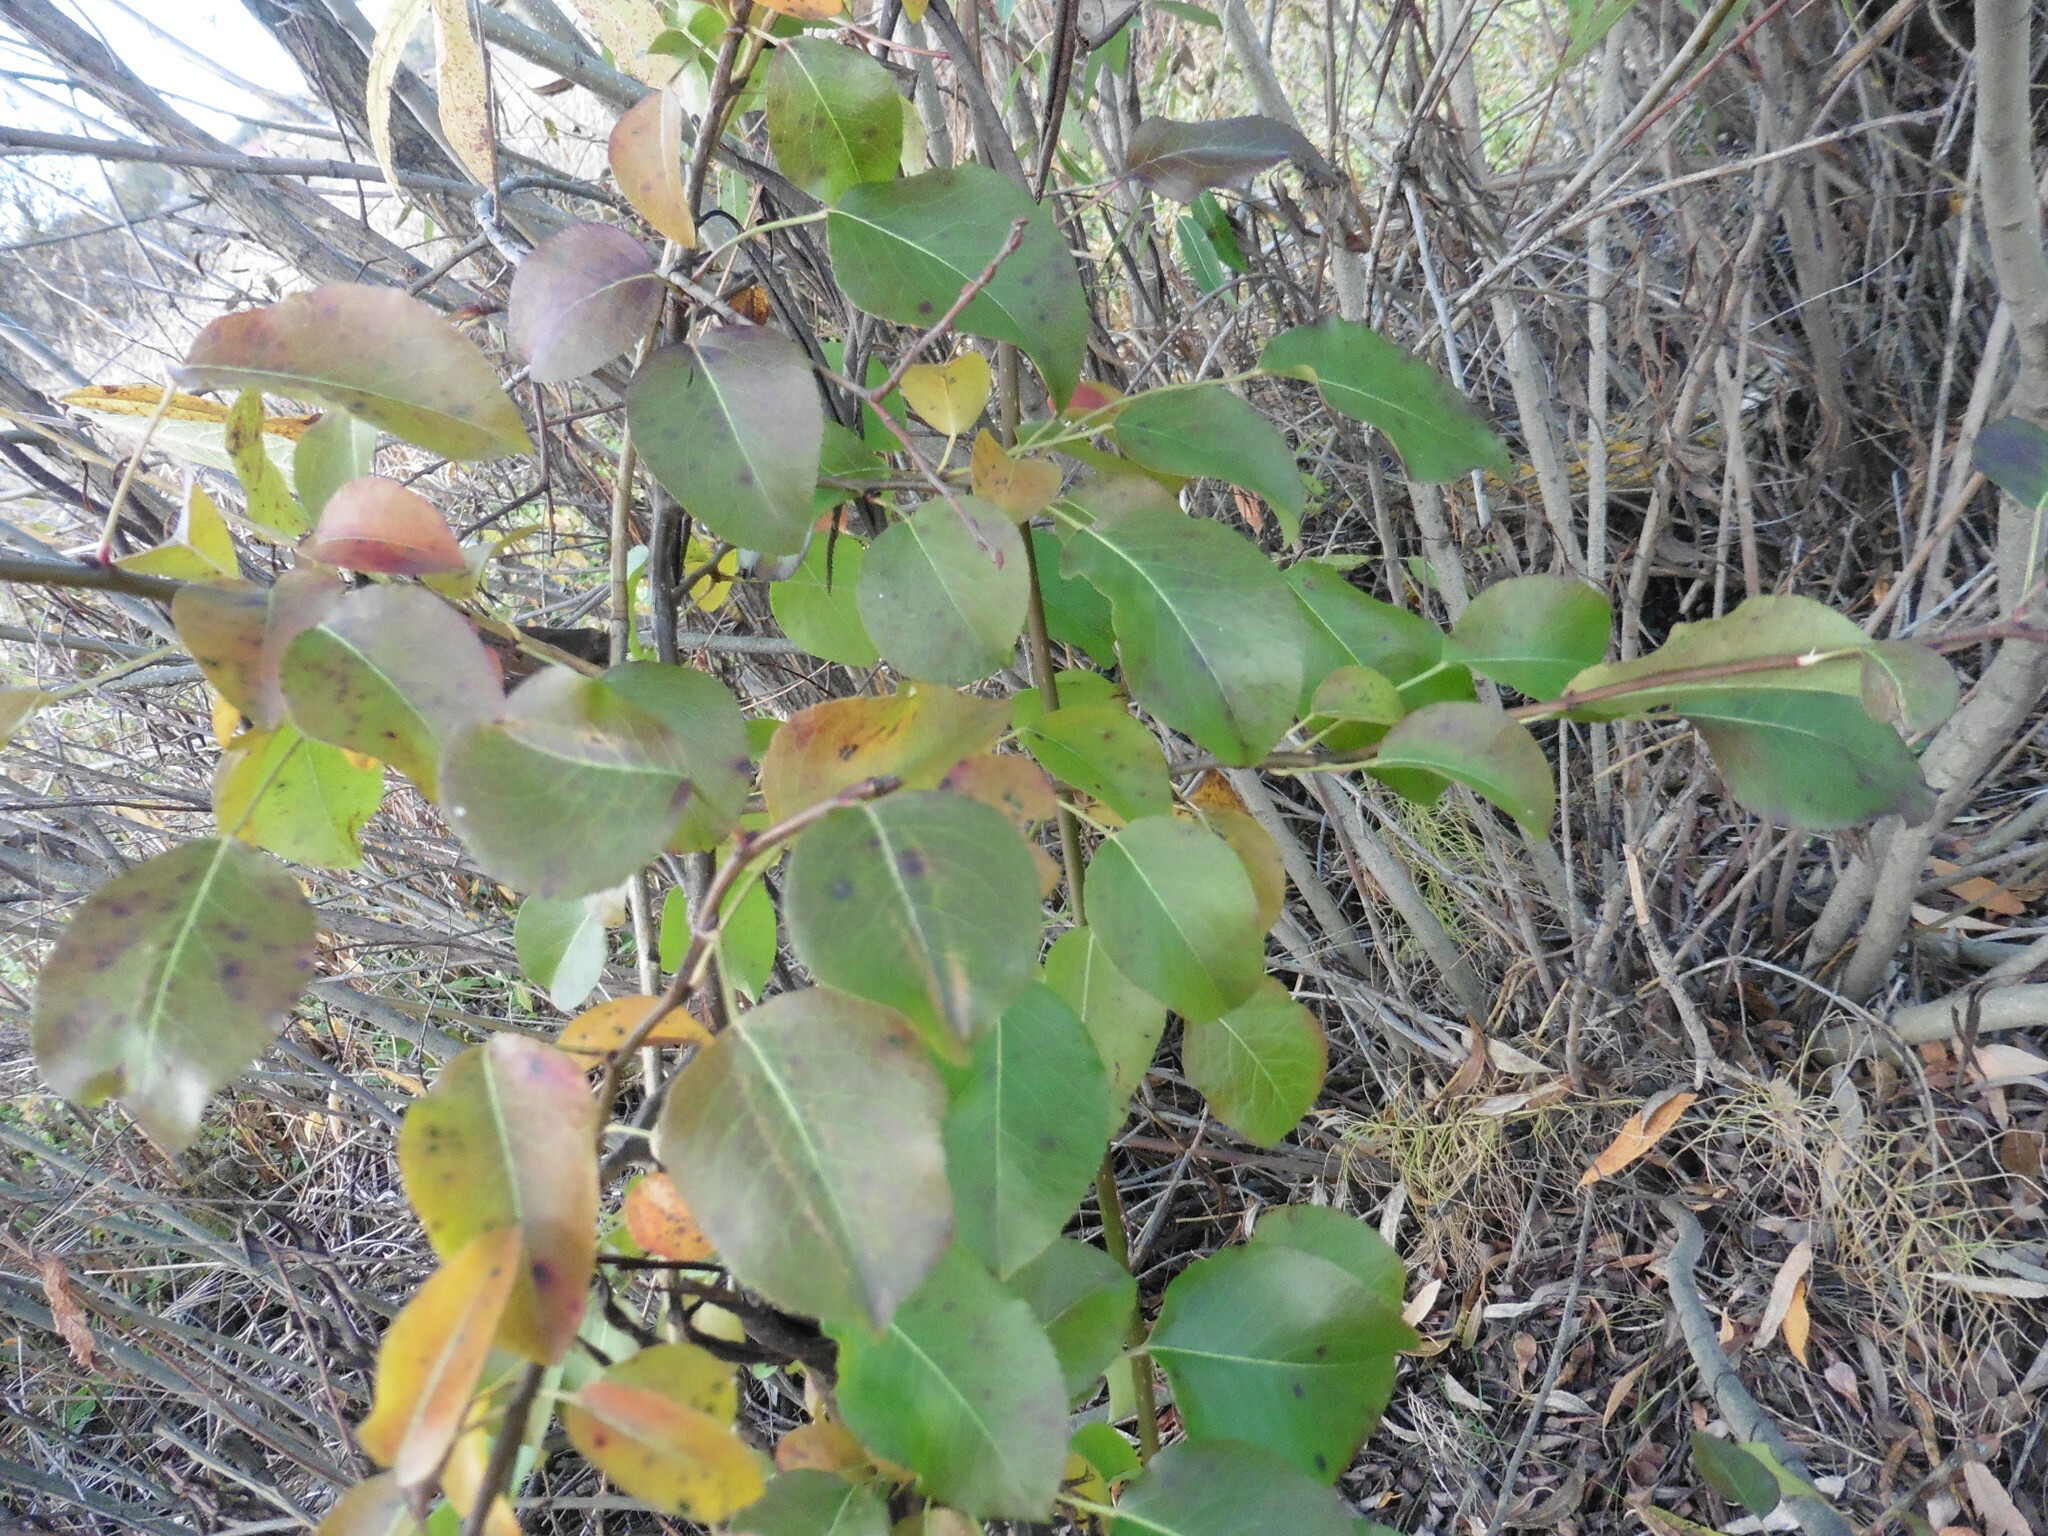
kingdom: Plantae
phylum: Tracheophyta
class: Magnoliopsida
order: Rosales
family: Rosaceae
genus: Pyrus
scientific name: Pyrus communis
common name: Pear
